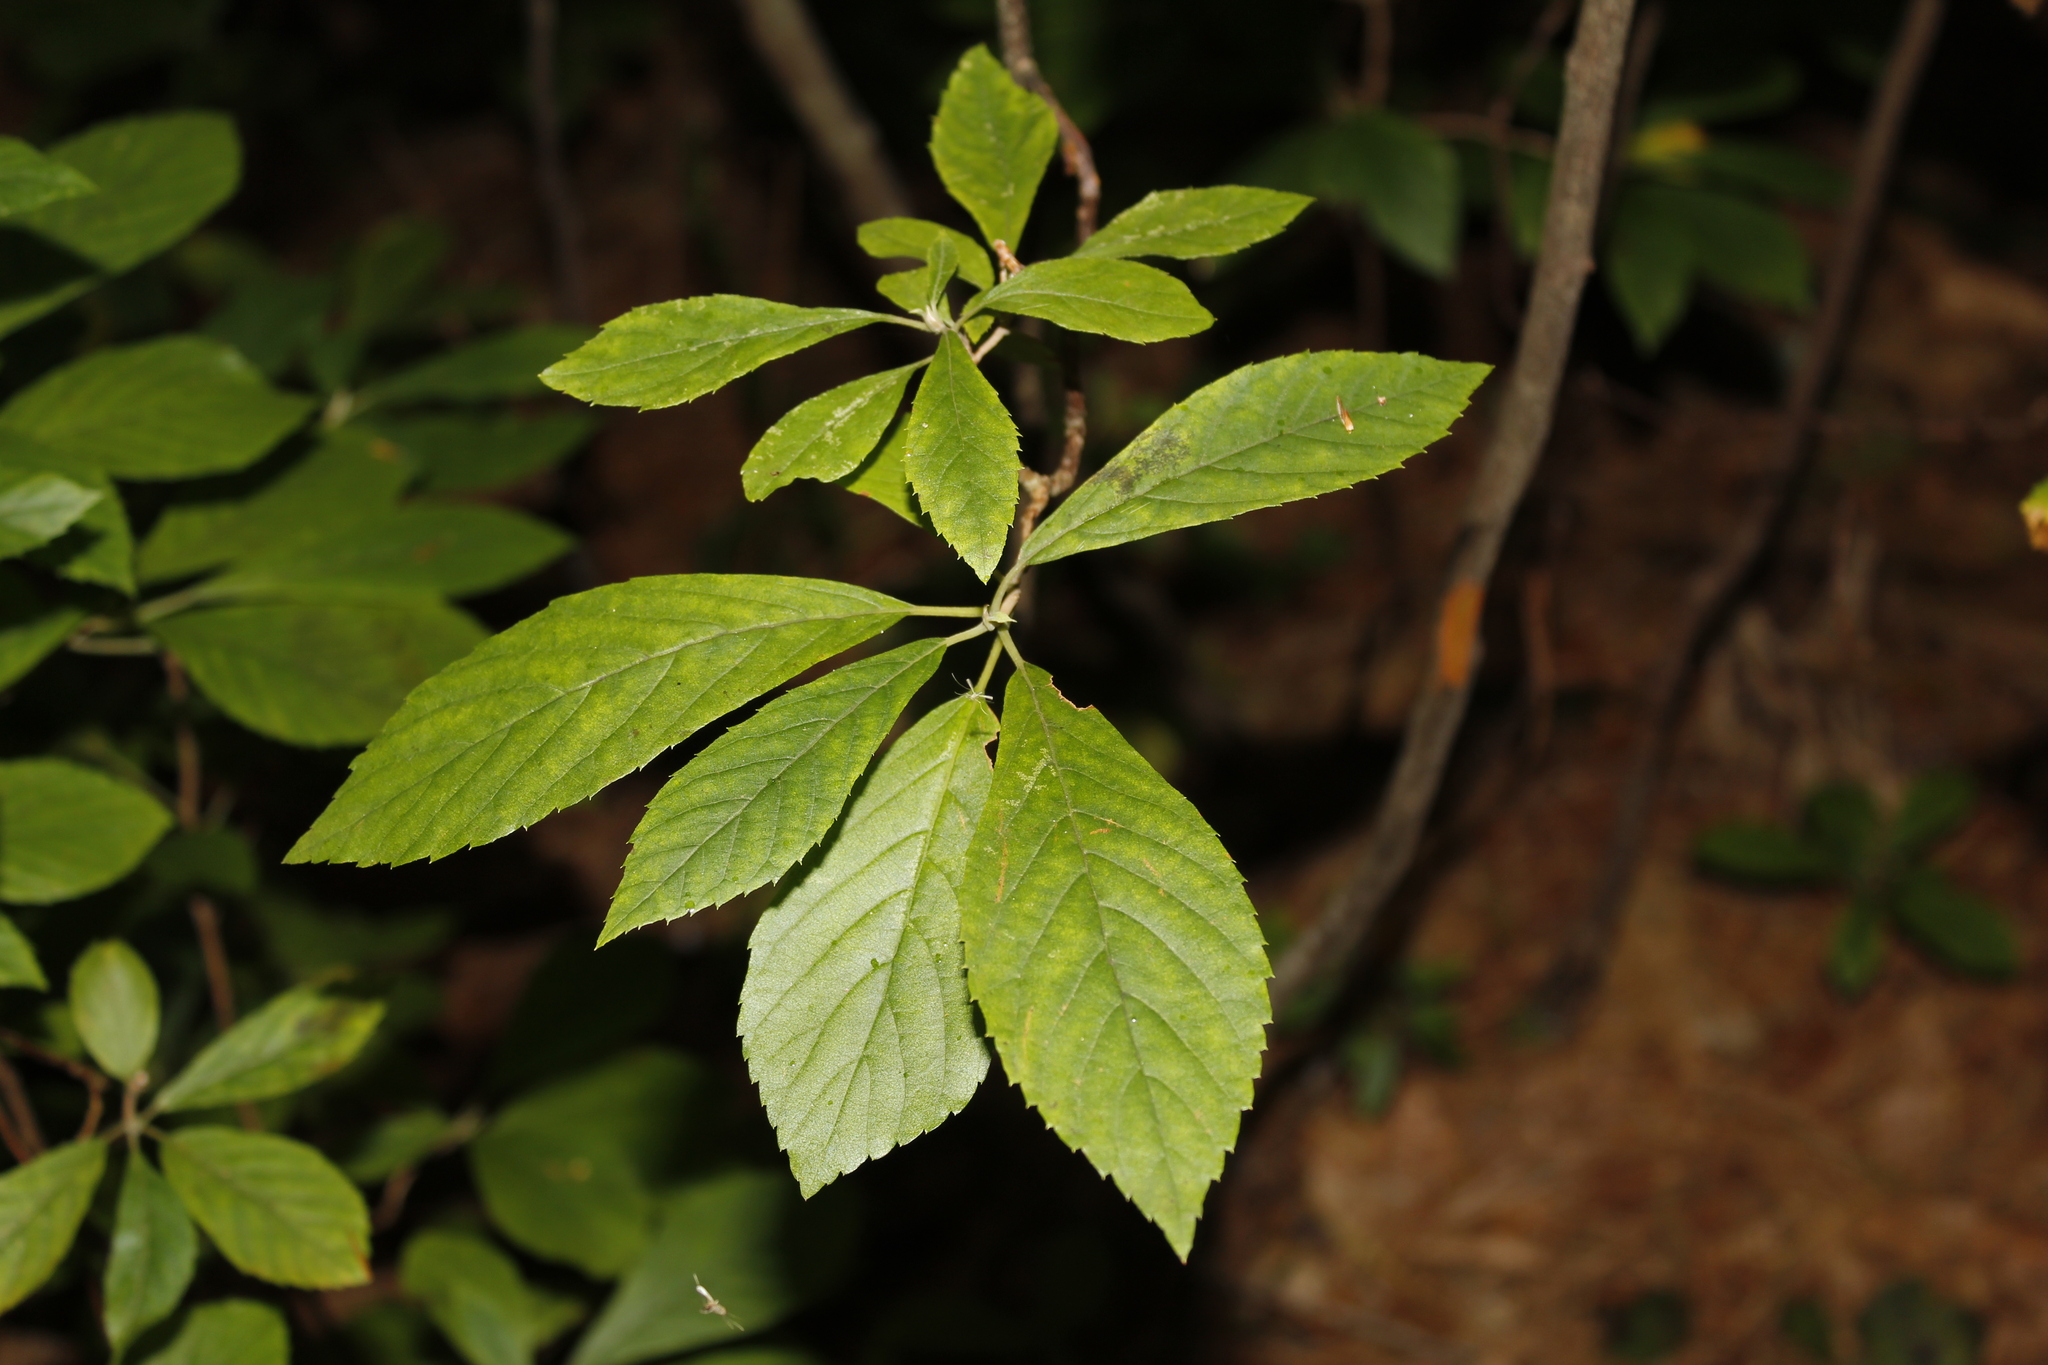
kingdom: Plantae
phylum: Tracheophyta
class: Magnoliopsida
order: Ericales
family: Clethraceae
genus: Clethra
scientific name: Clethra alnifolia
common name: Sweet pepperbush
